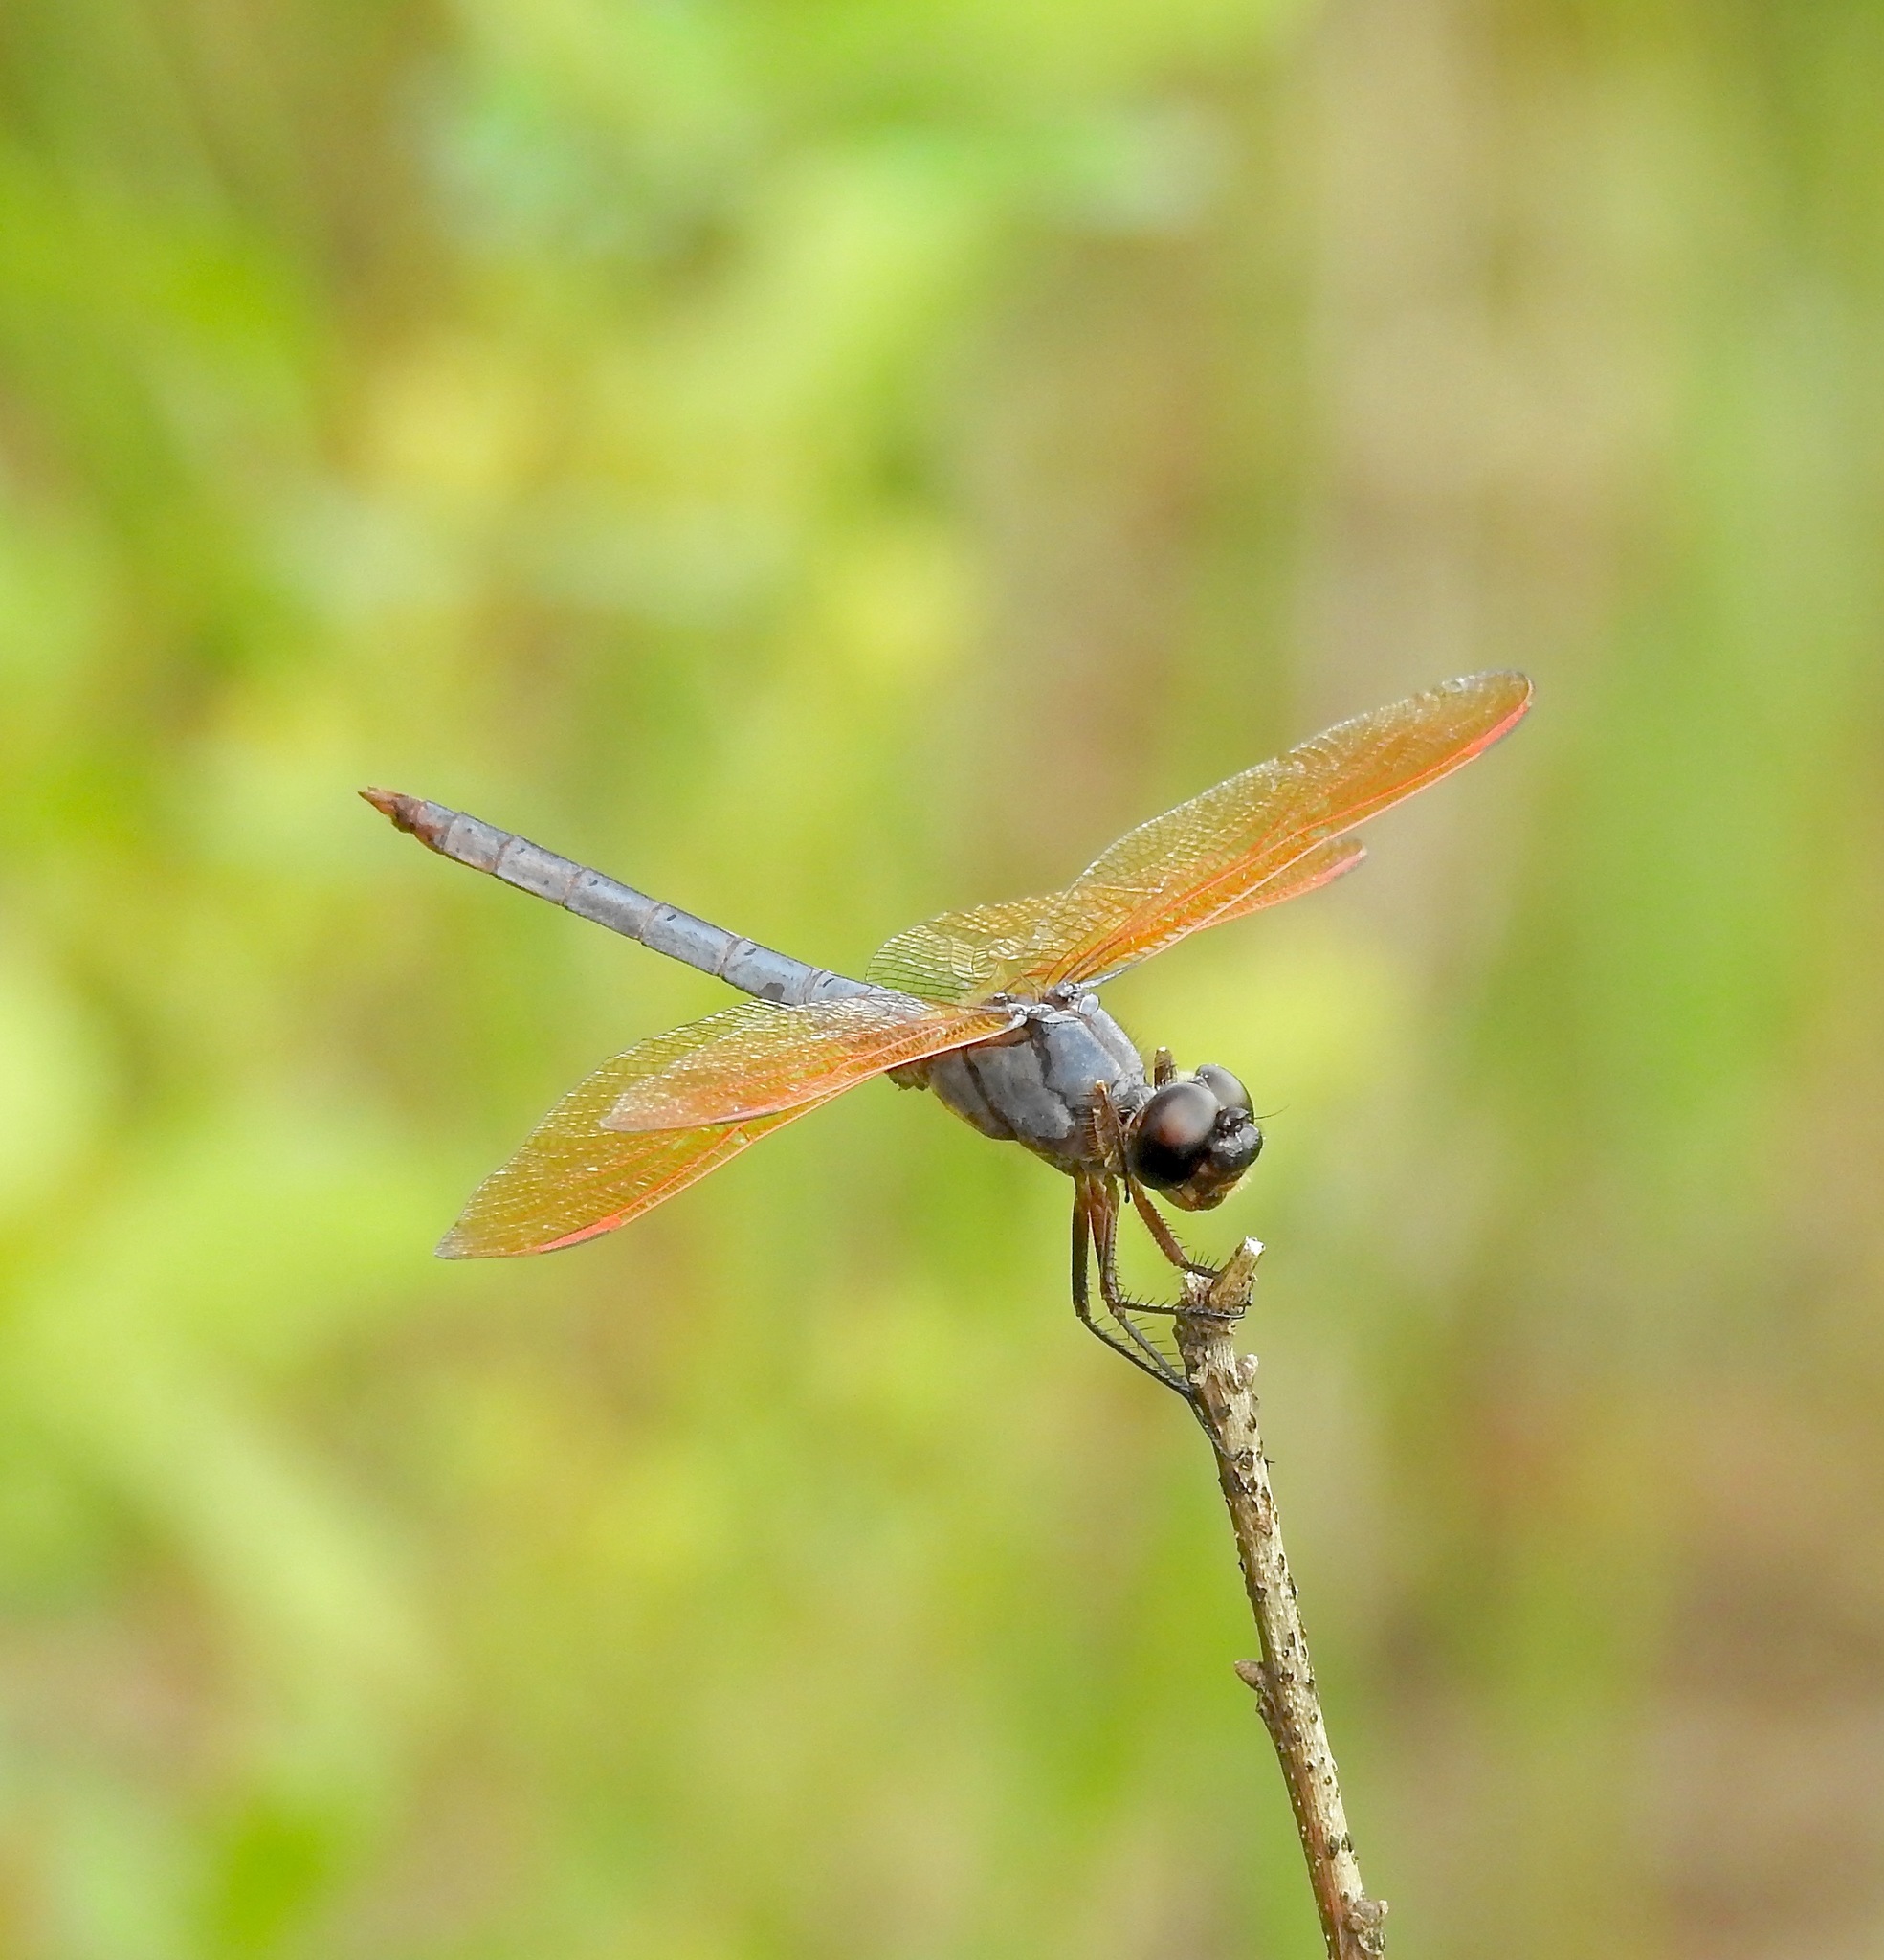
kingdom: Animalia
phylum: Arthropoda
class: Insecta
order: Odonata
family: Libellulidae
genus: Libellula
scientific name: Libellula jesseana
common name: Purple skimmer
